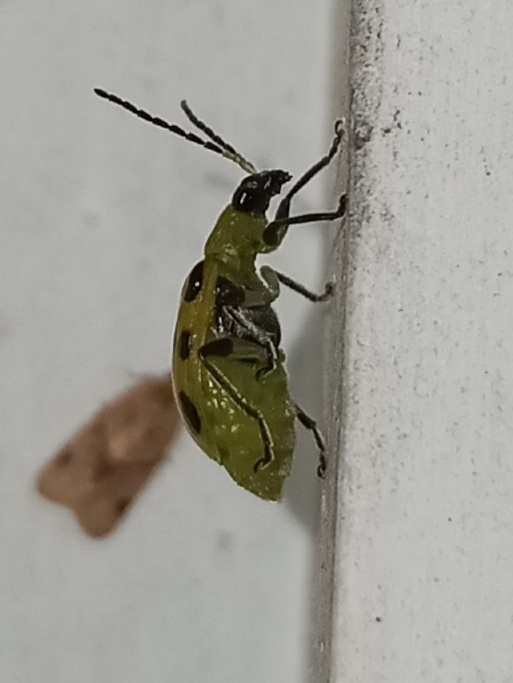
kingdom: Animalia
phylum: Arthropoda
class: Insecta
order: Coleoptera
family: Chrysomelidae
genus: Diabrotica
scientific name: Diabrotica undecimpunctata
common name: Spotted cucumber beetle
